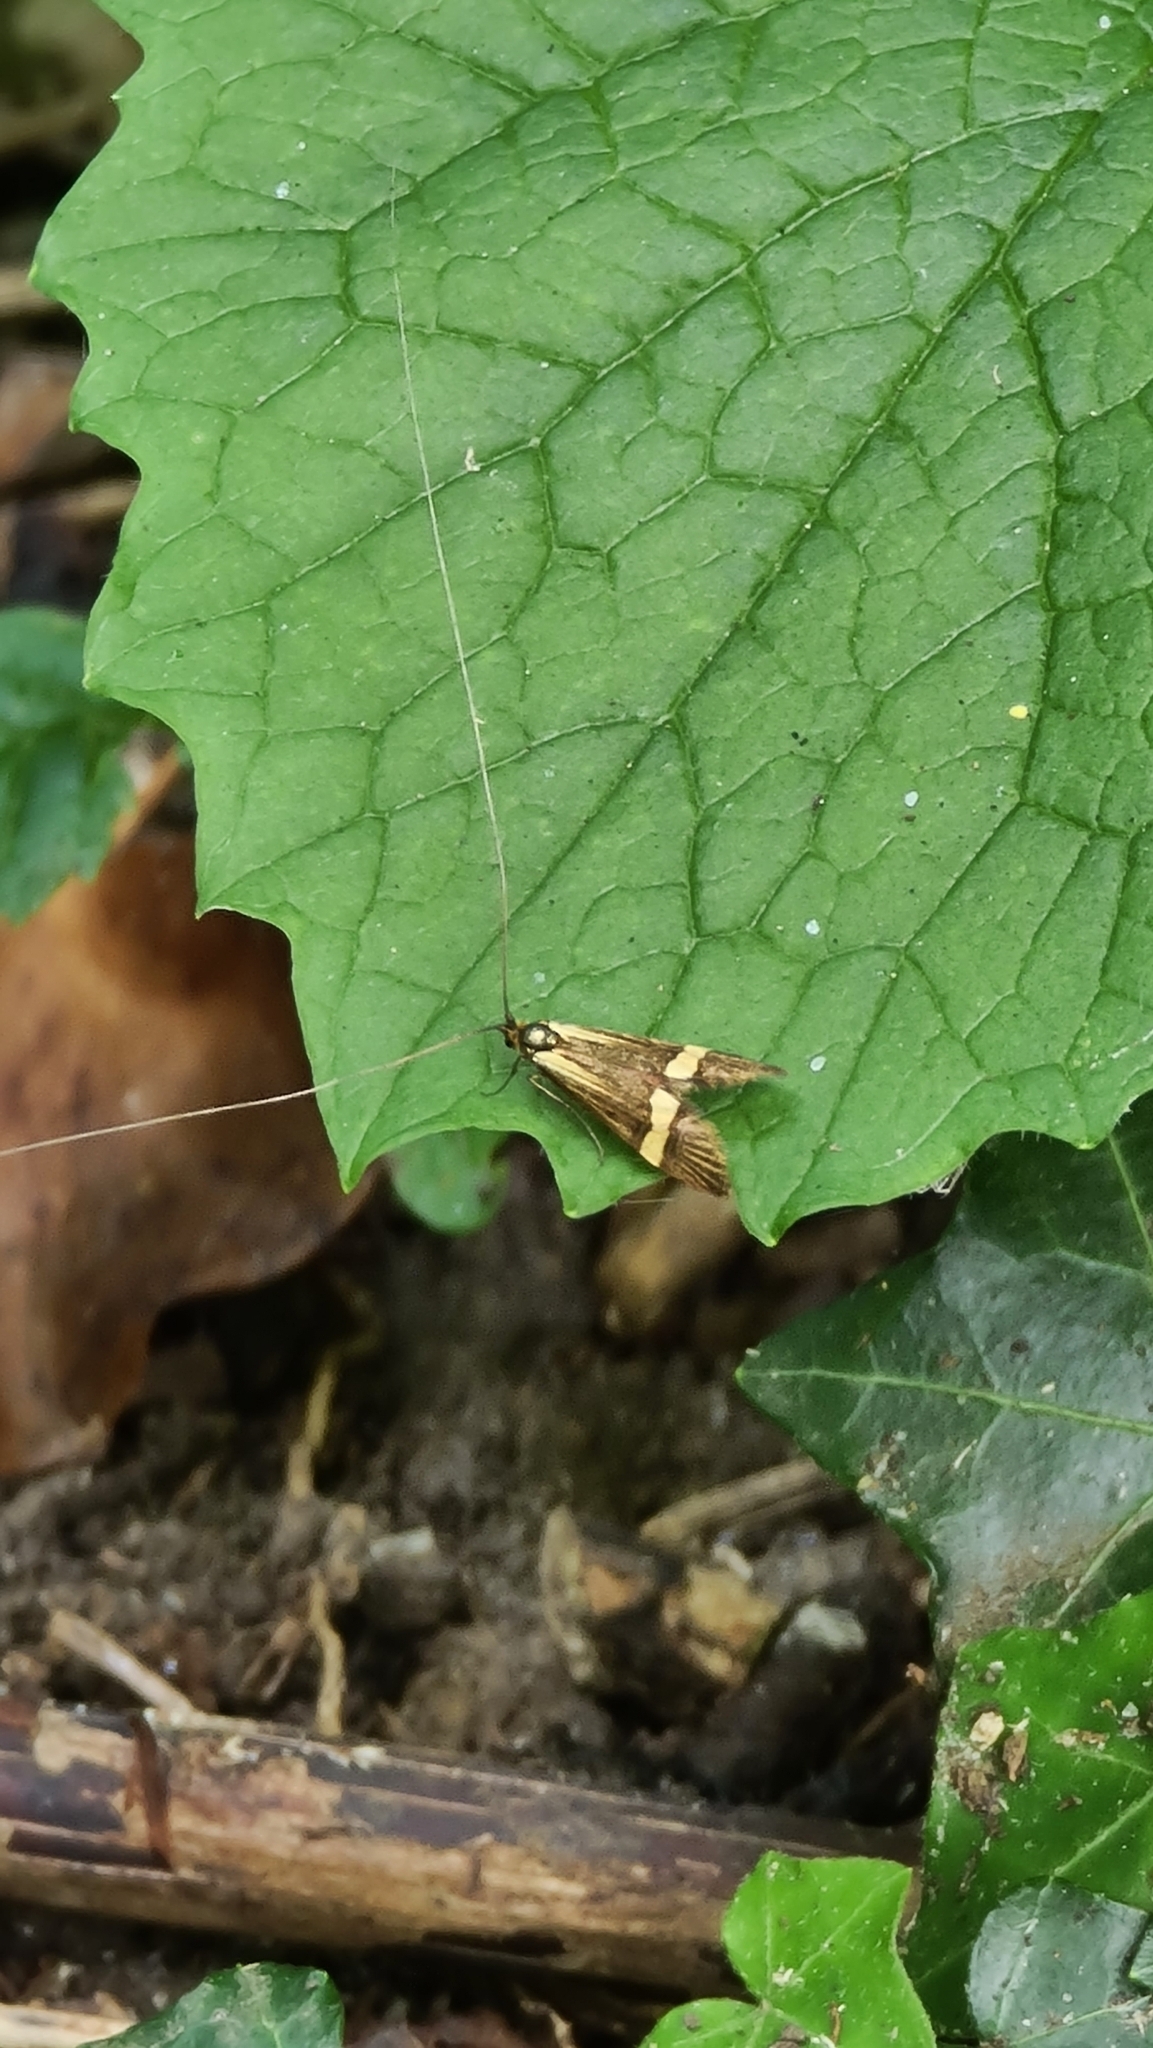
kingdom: Animalia
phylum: Arthropoda
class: Insecta
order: Lepidoptera
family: Adelidae
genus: Nemophora
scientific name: Nemophora degeerella
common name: Yellow-barred long-horn
